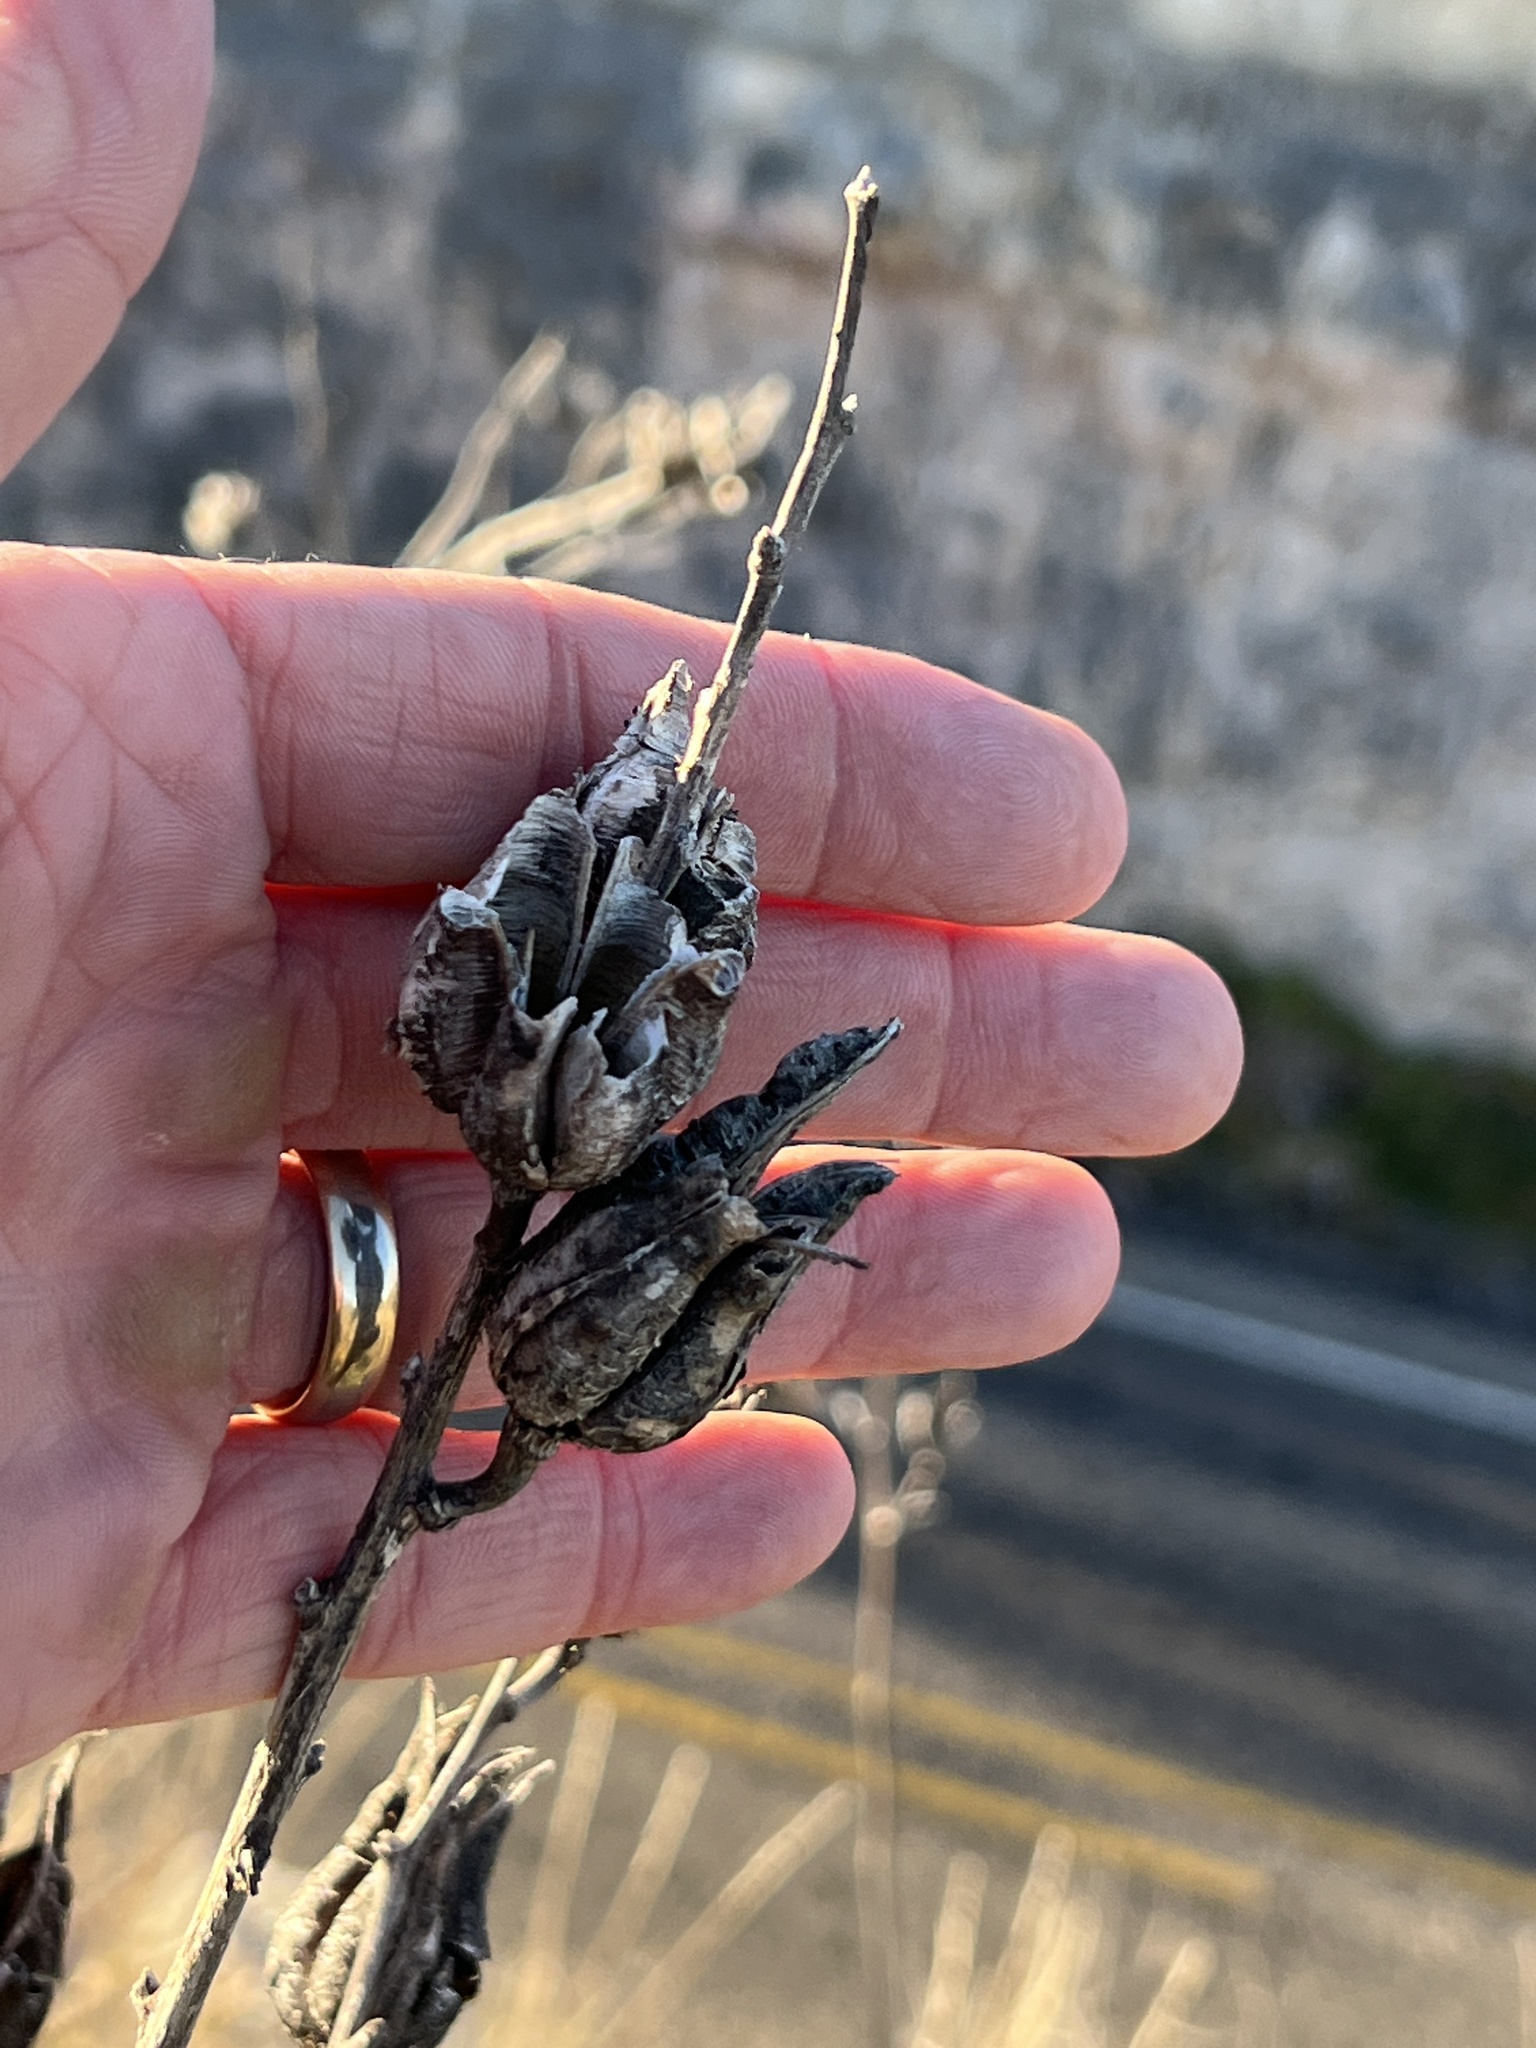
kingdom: Plantae
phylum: Tracheophyta
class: Liliopsida
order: Asparagales
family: Asparagaceae
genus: Yucca
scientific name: Yucca reverchonii
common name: San angelo yucca
